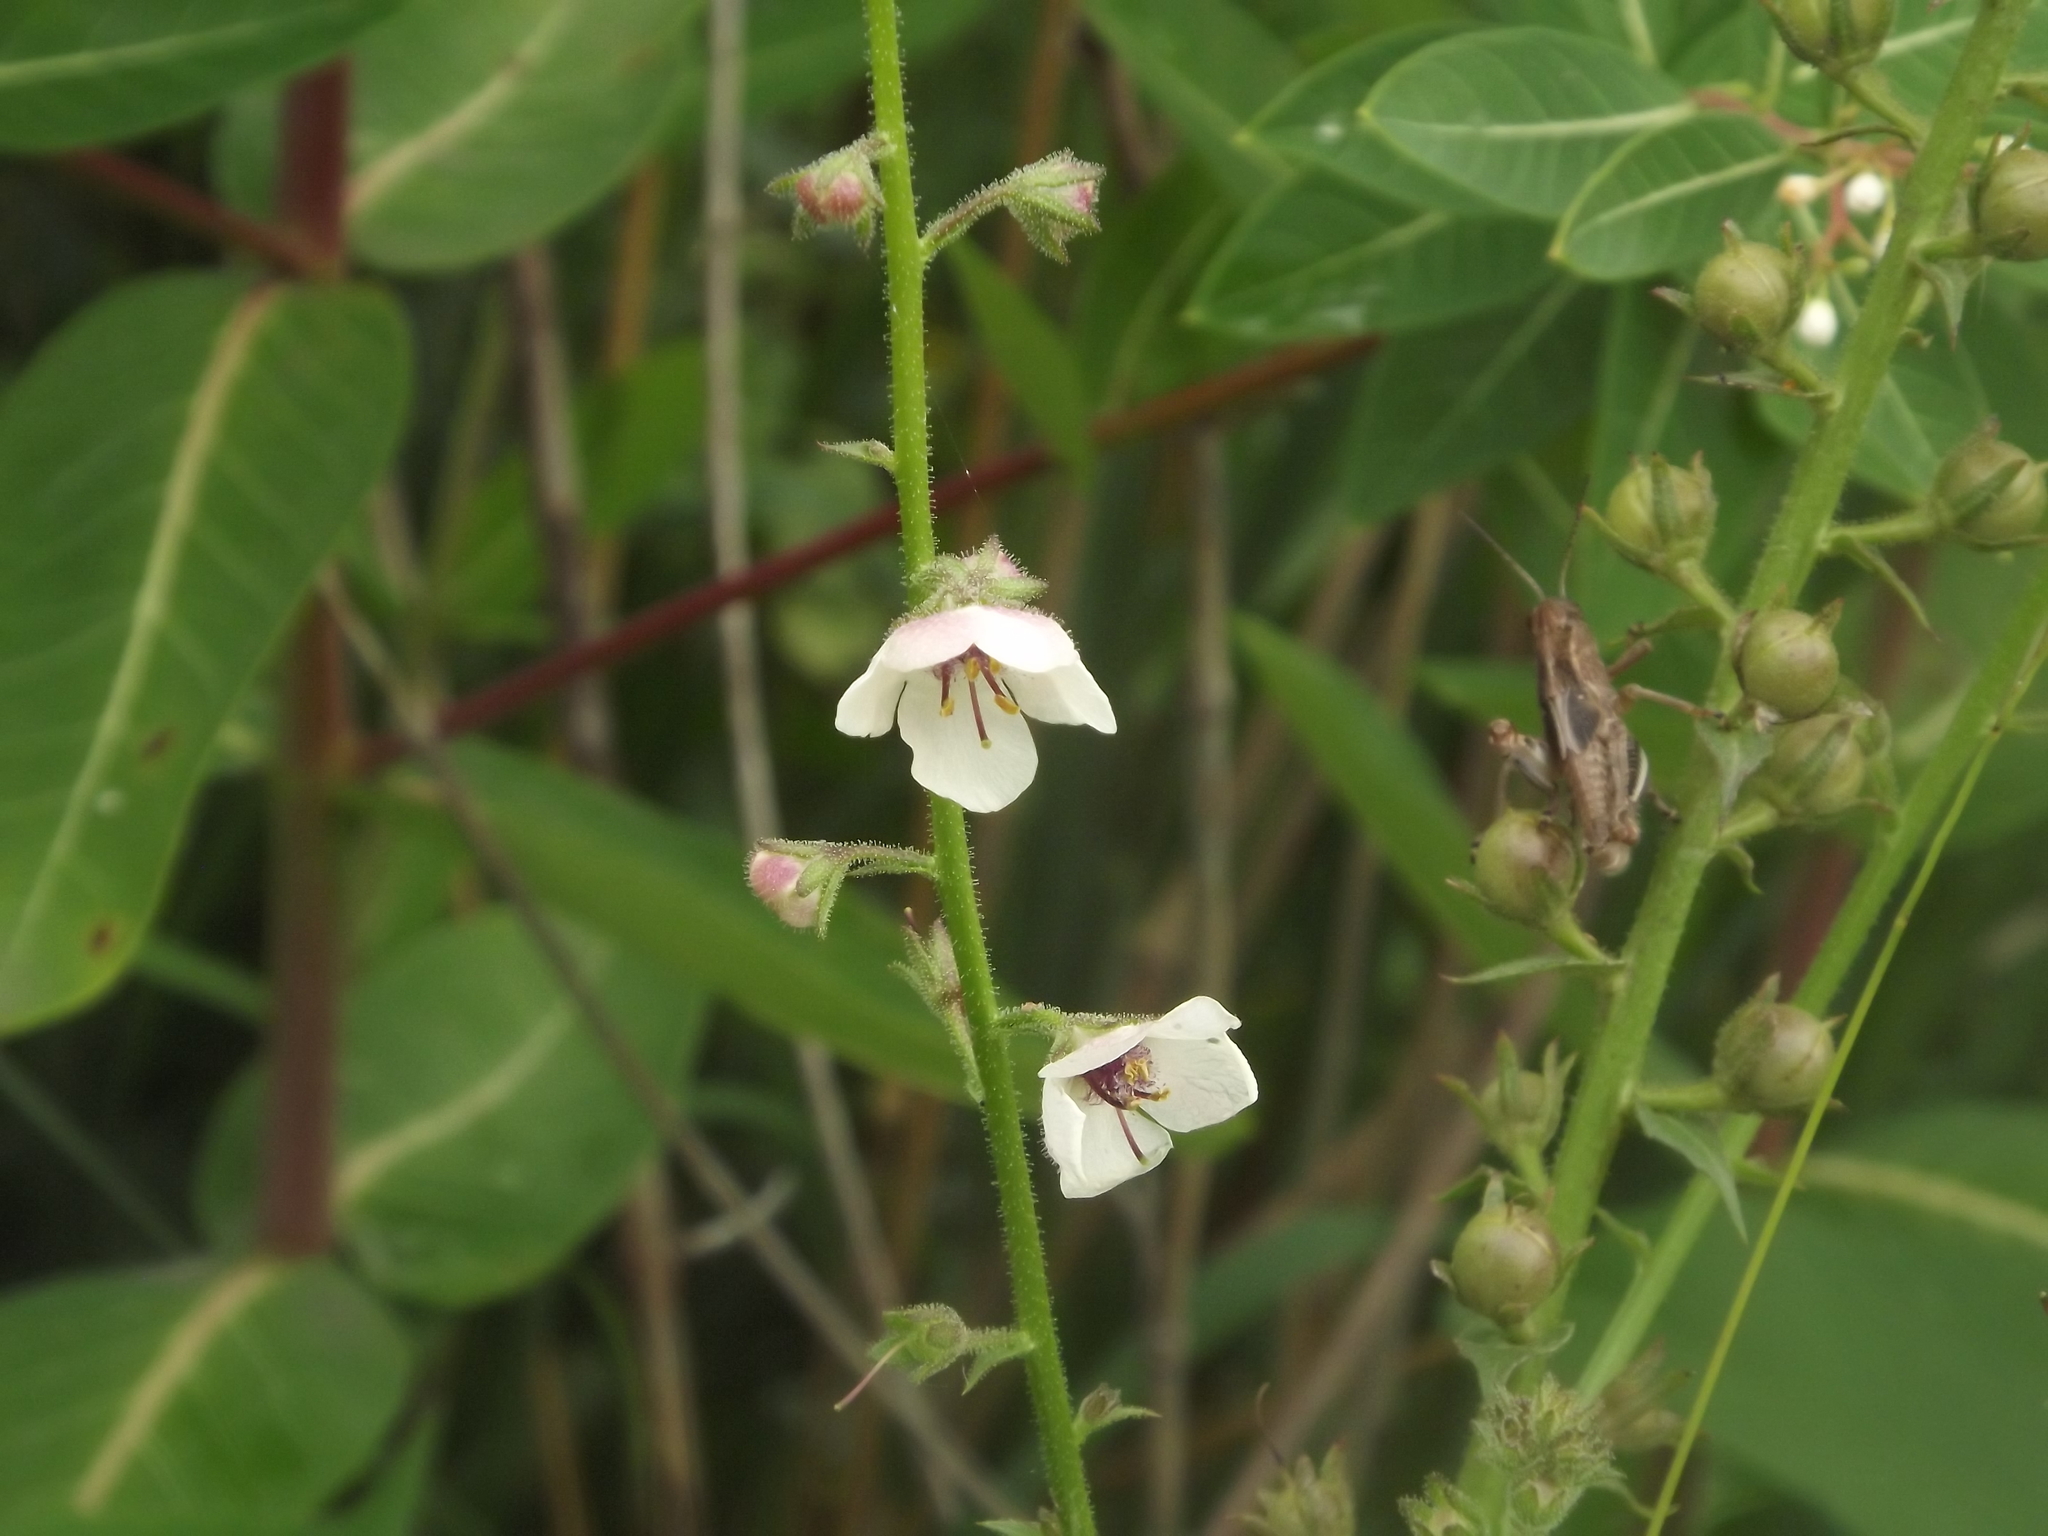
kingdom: Plantae
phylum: Tracheophyta
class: Magnoliopsida
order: Lamiales
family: Scrophulariaceae
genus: Verbascum
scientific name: Verbascum blattaria
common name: Moth mullein
